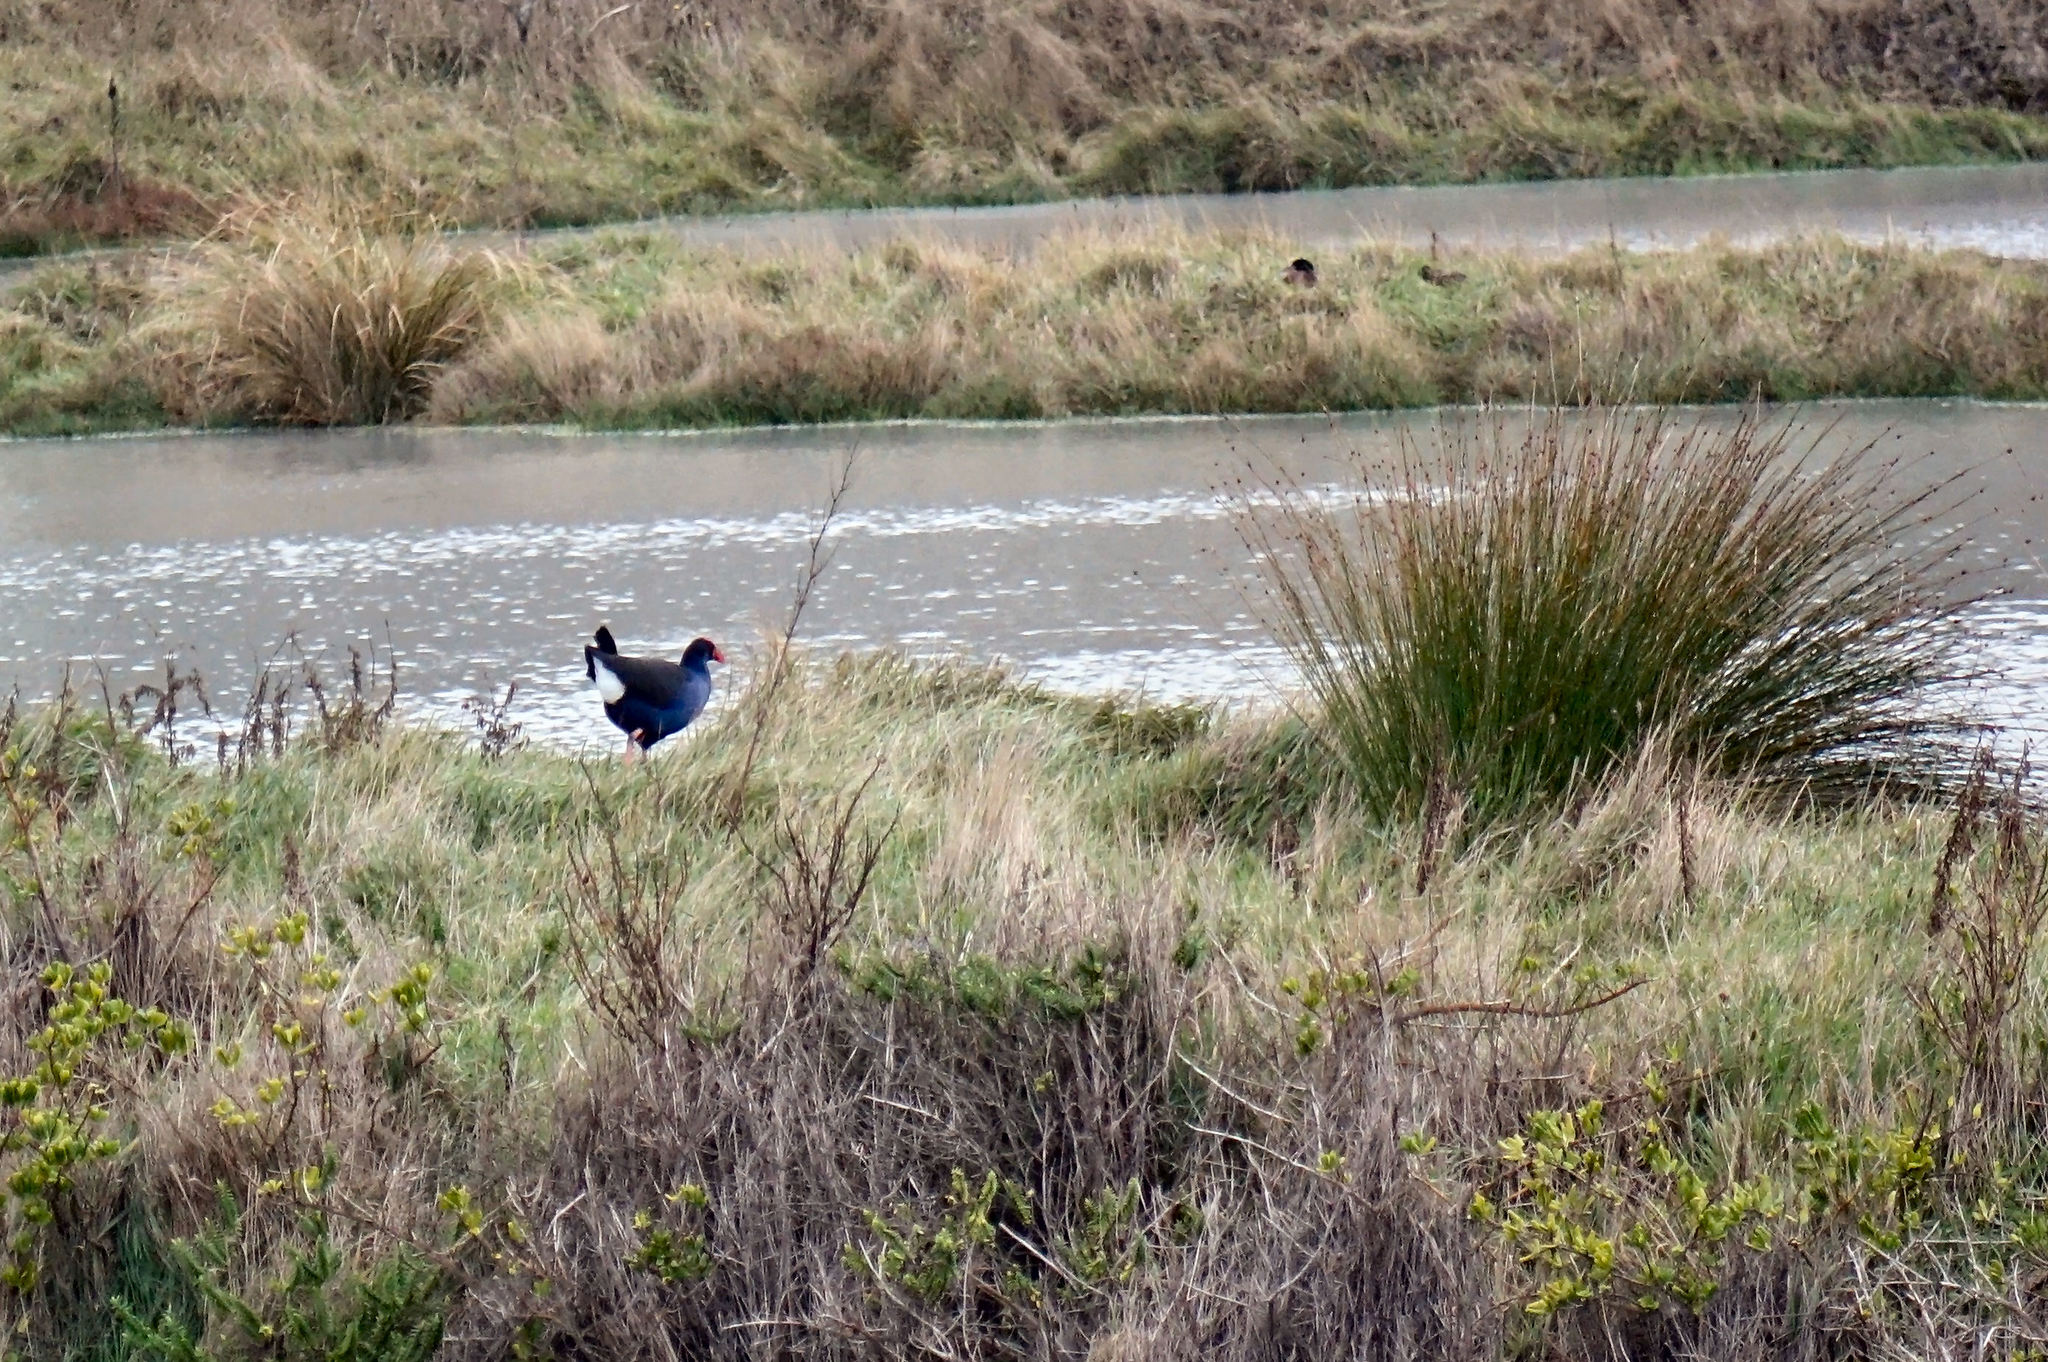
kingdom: Animalia
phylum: Chordata
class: Aves
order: Gruiformes
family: Rallidae
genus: Porphyrio
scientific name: Porphyrio melanotus
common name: Australasian swamphen
